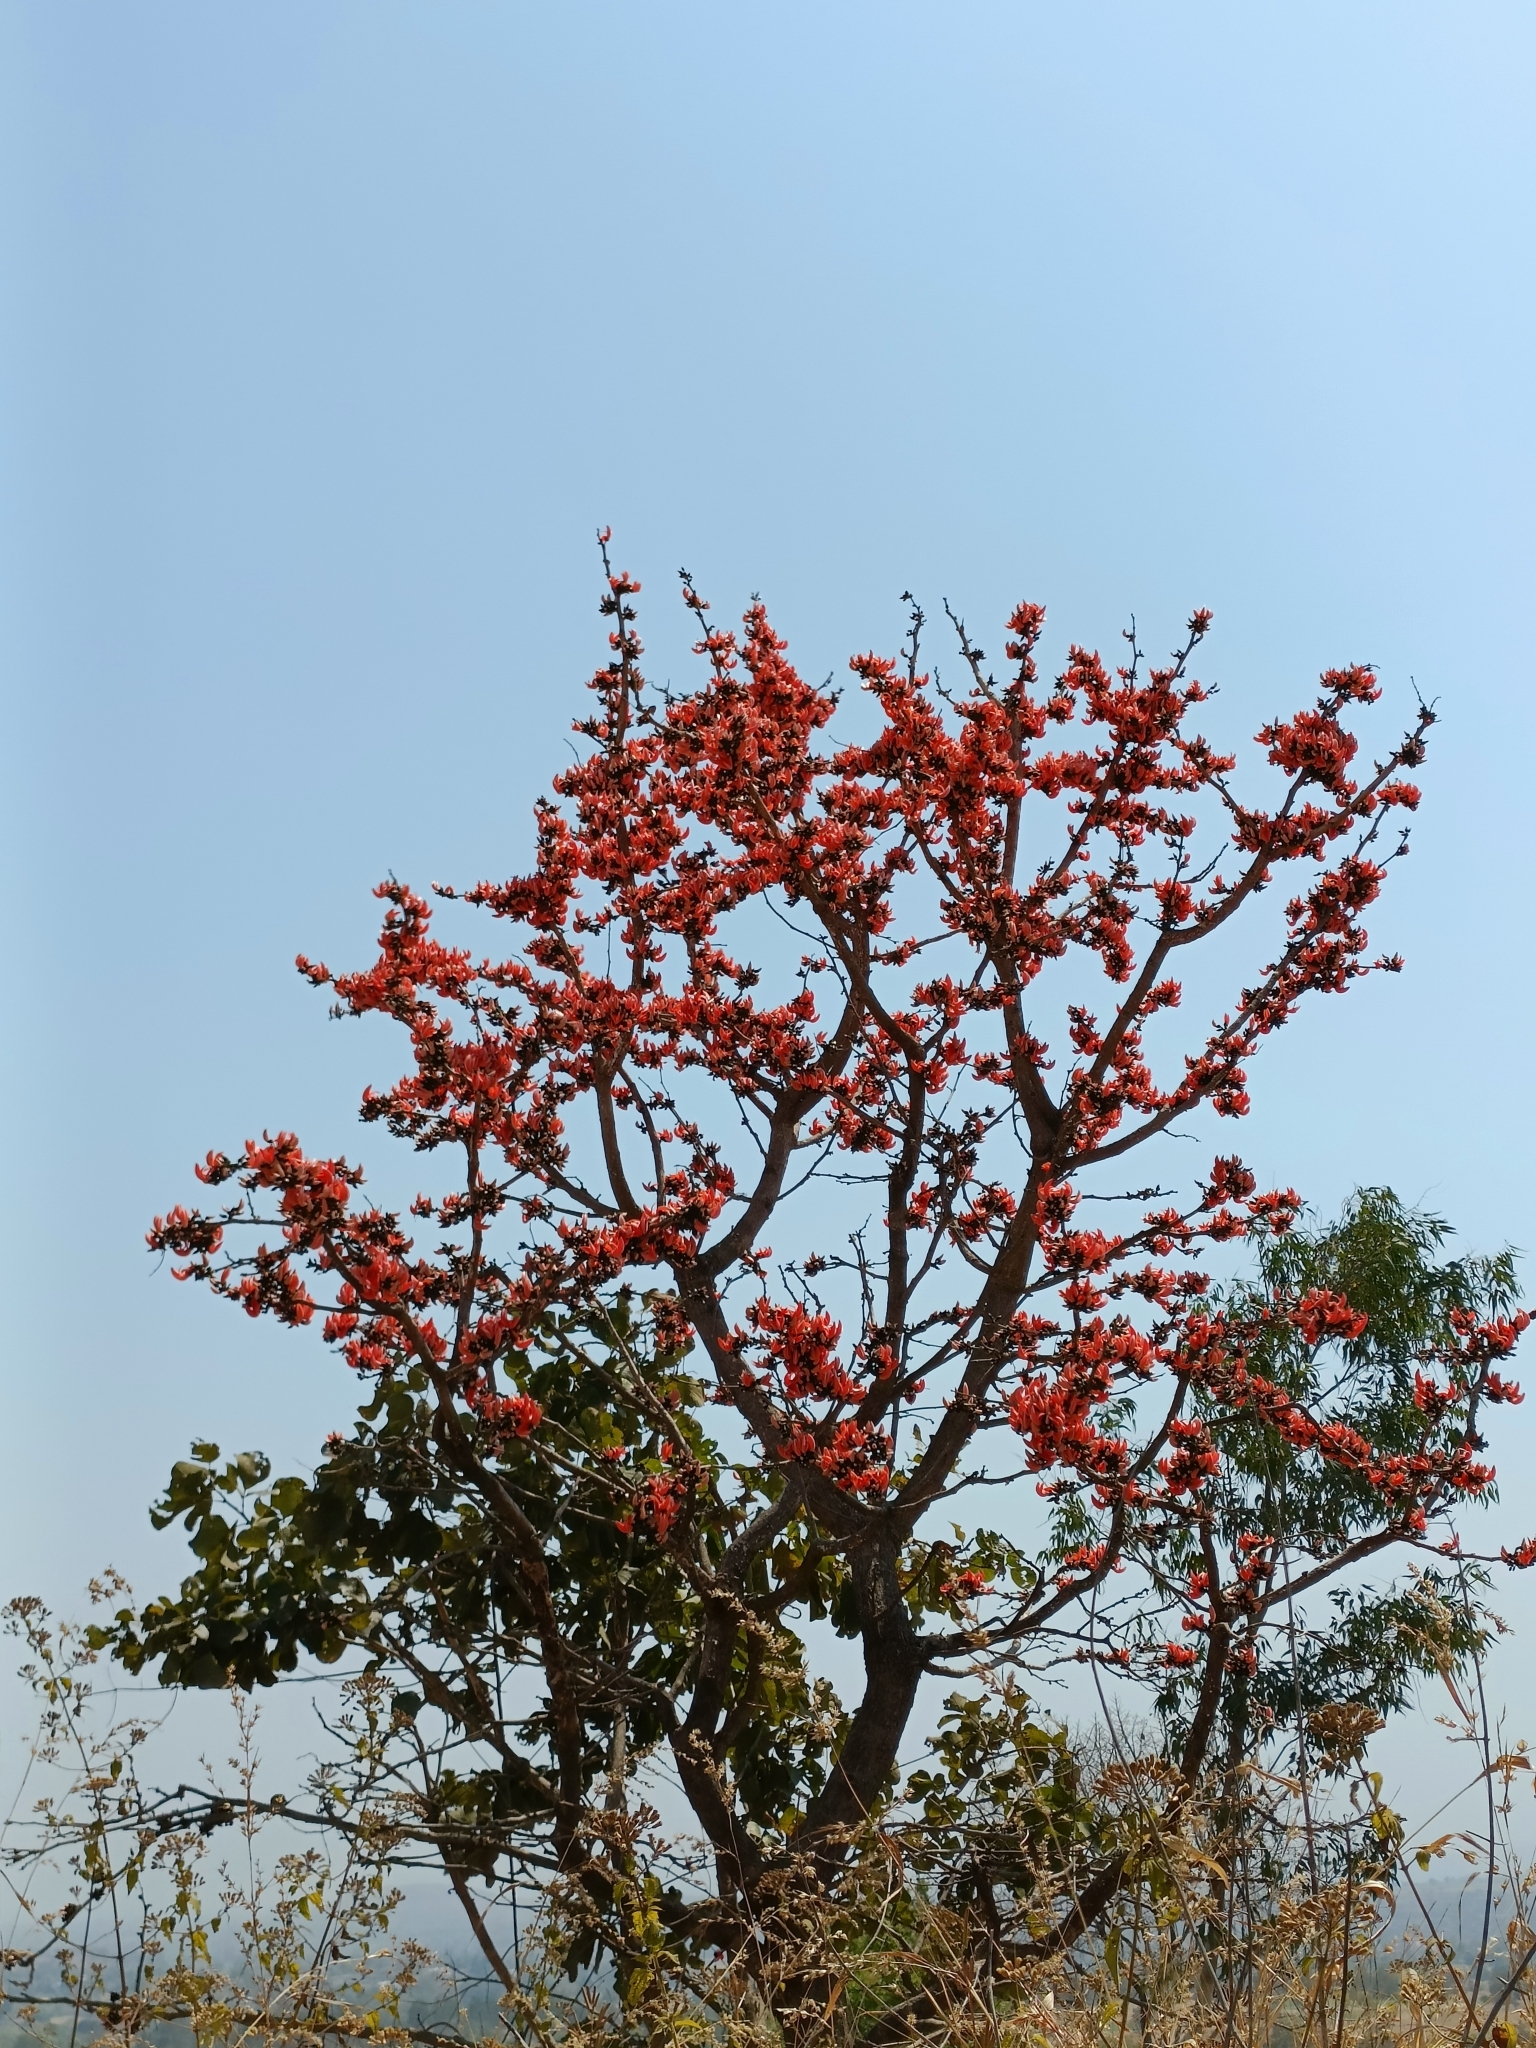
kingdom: Plantae
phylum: Tracheophyta
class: Magnoliopsida
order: Fabales
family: Fabaceae
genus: Butea
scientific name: Butea monosperma
